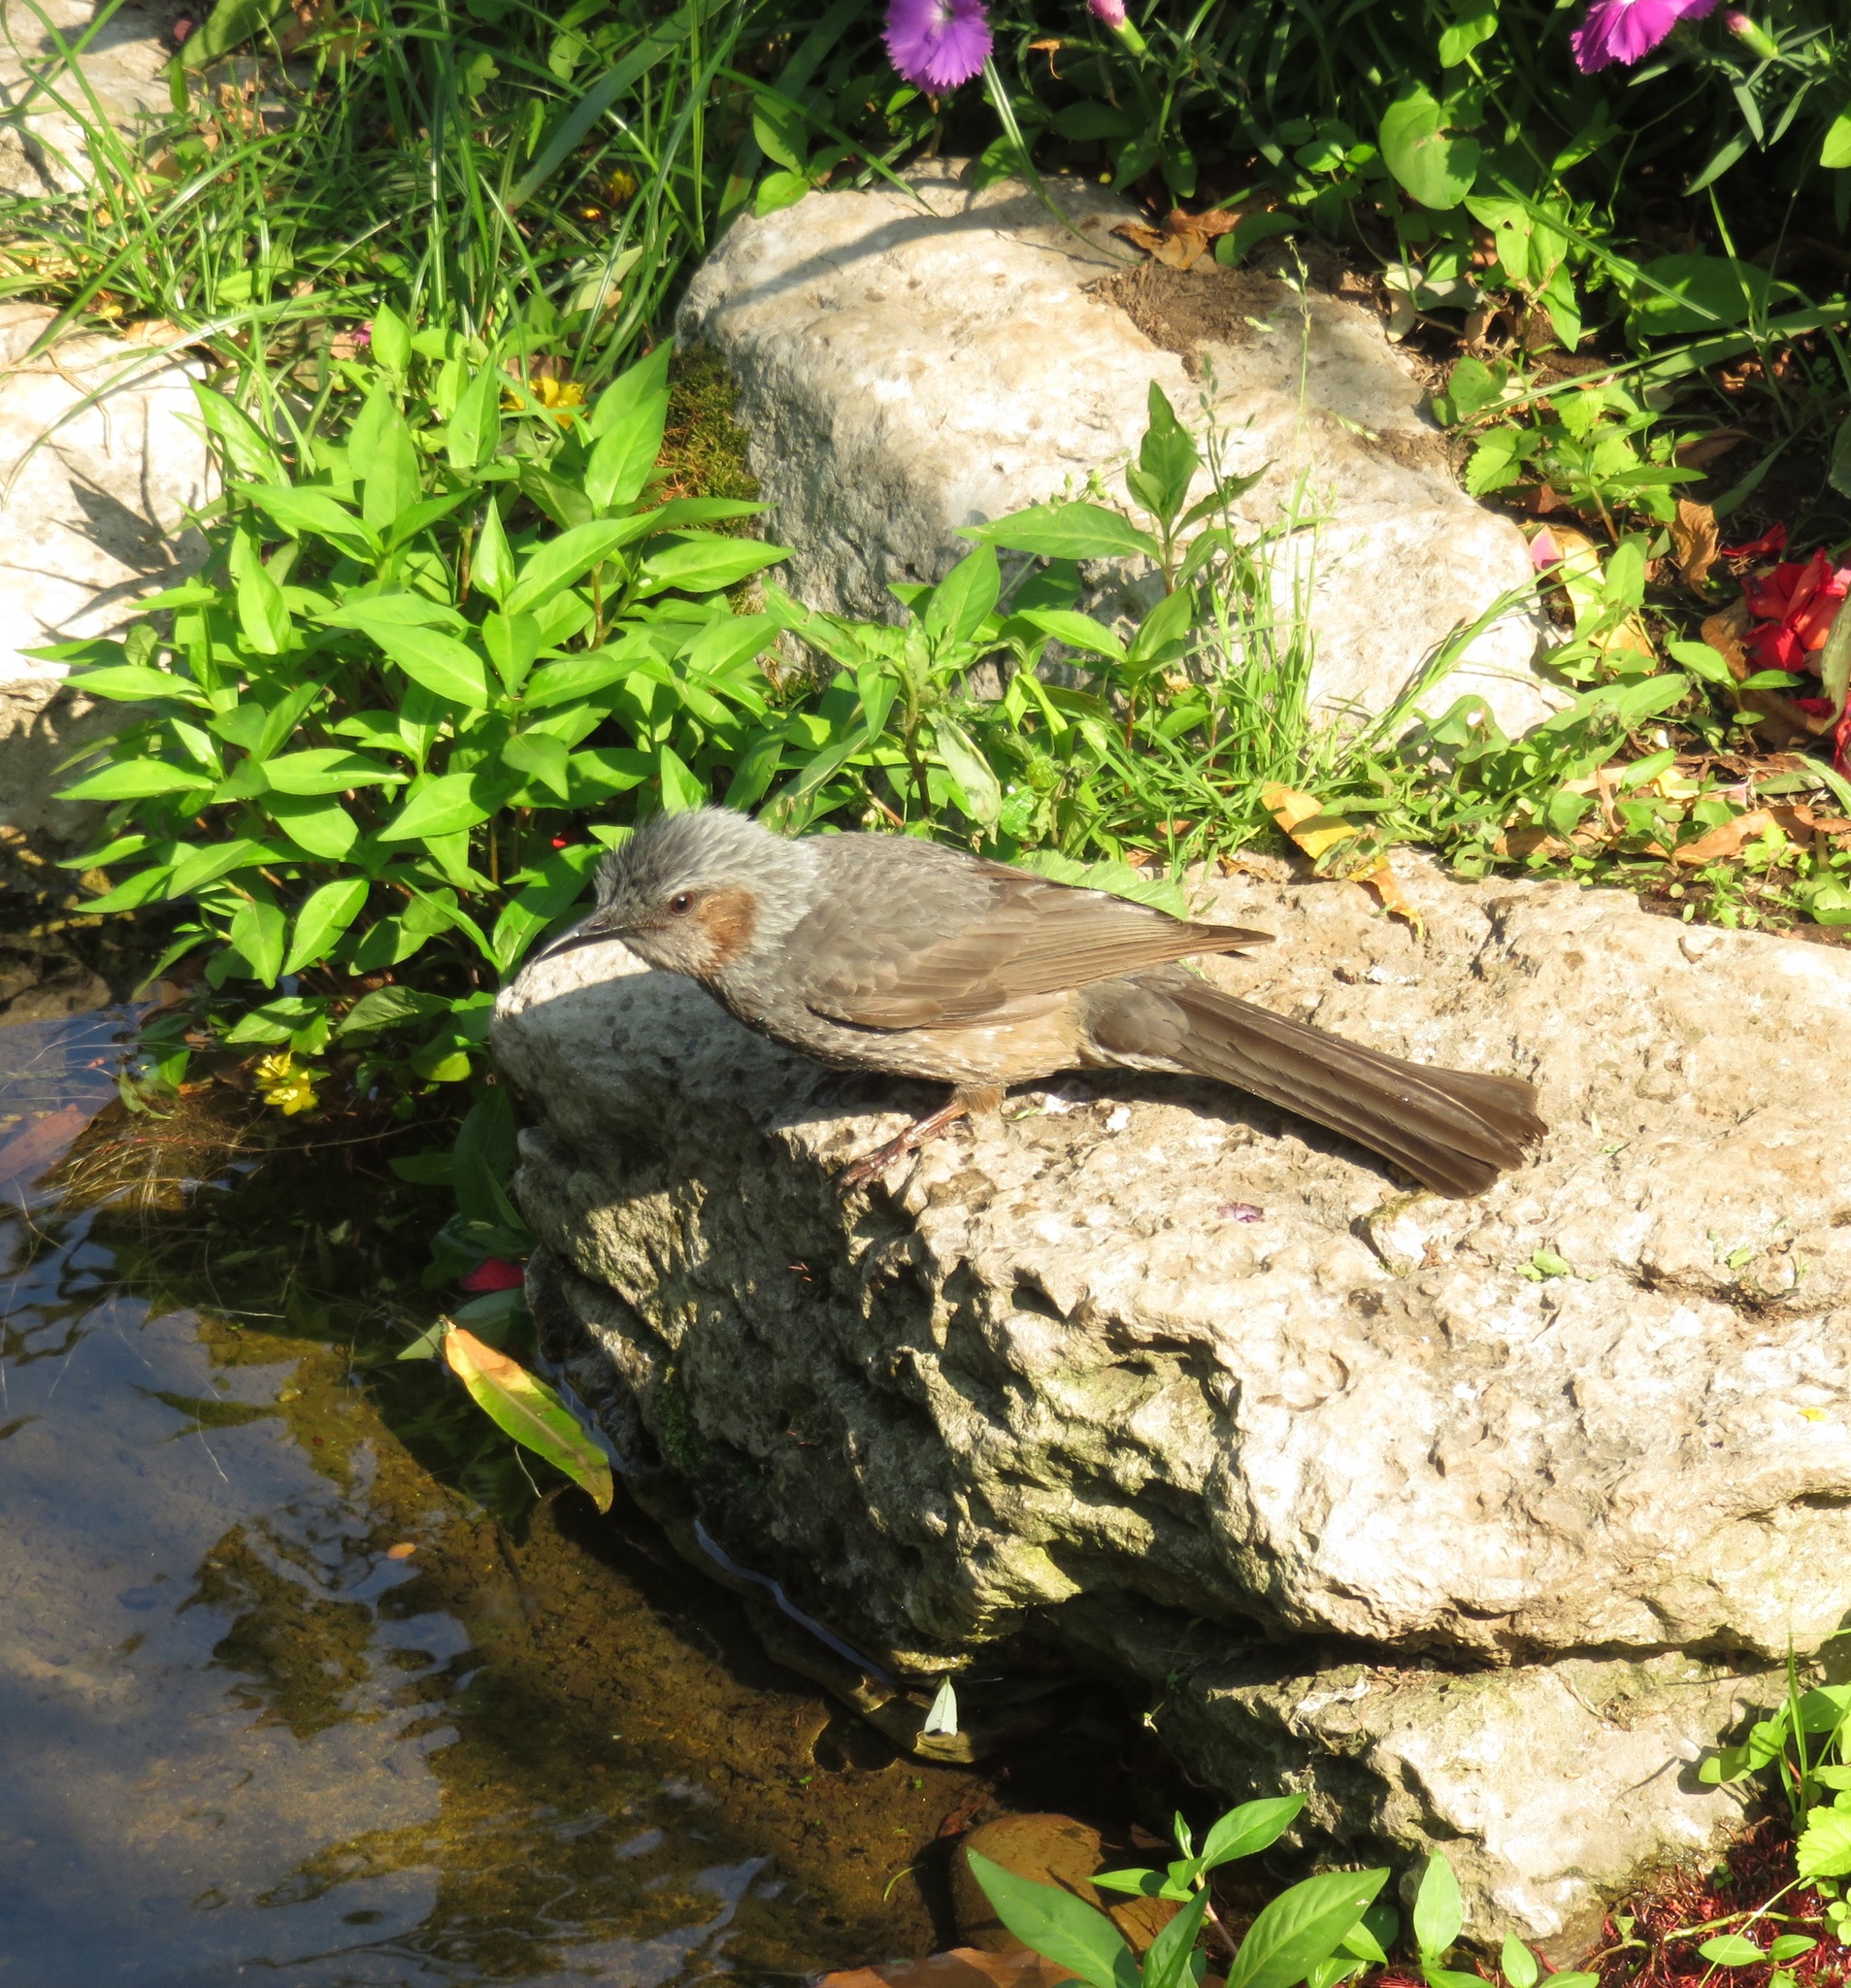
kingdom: Animalia
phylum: Chordata
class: Aves
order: Passeriformes
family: Pycnonotidae
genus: Hypsipetes
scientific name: Hypsipetes amaurotis
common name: Brown-eared bulbul
